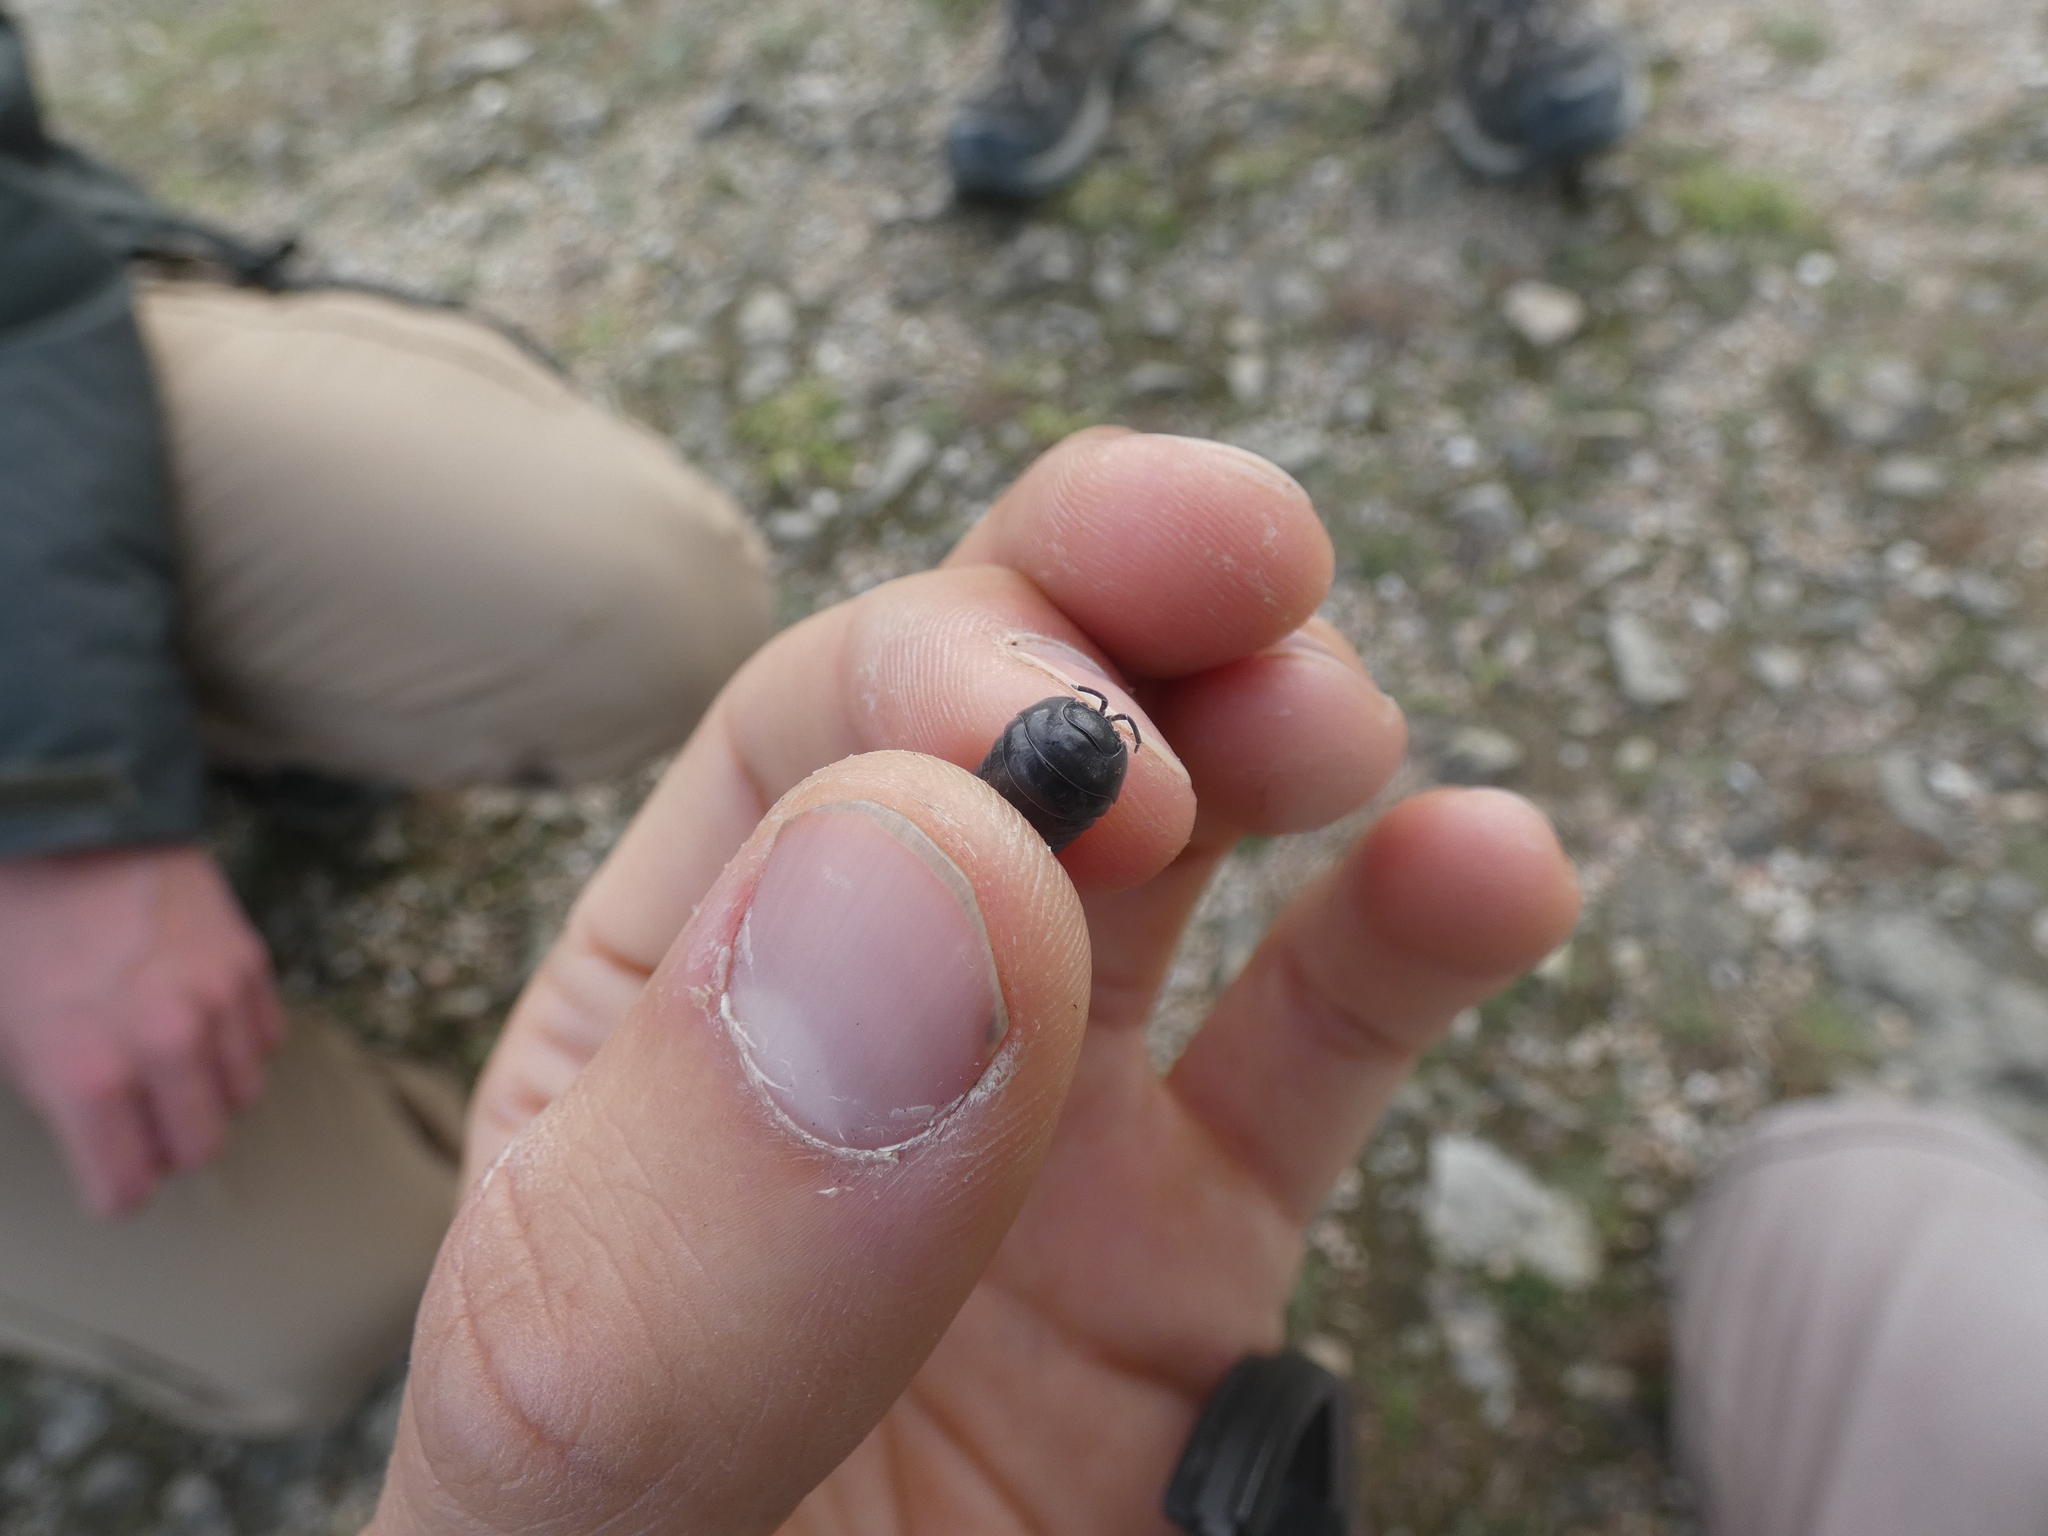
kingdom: Animalia
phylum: Arthropoda
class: Malacostraca
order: Isopoda
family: Armadillidiidae
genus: Armadillidium
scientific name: Armadillidium vulgare
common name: Common pill woodlouse
